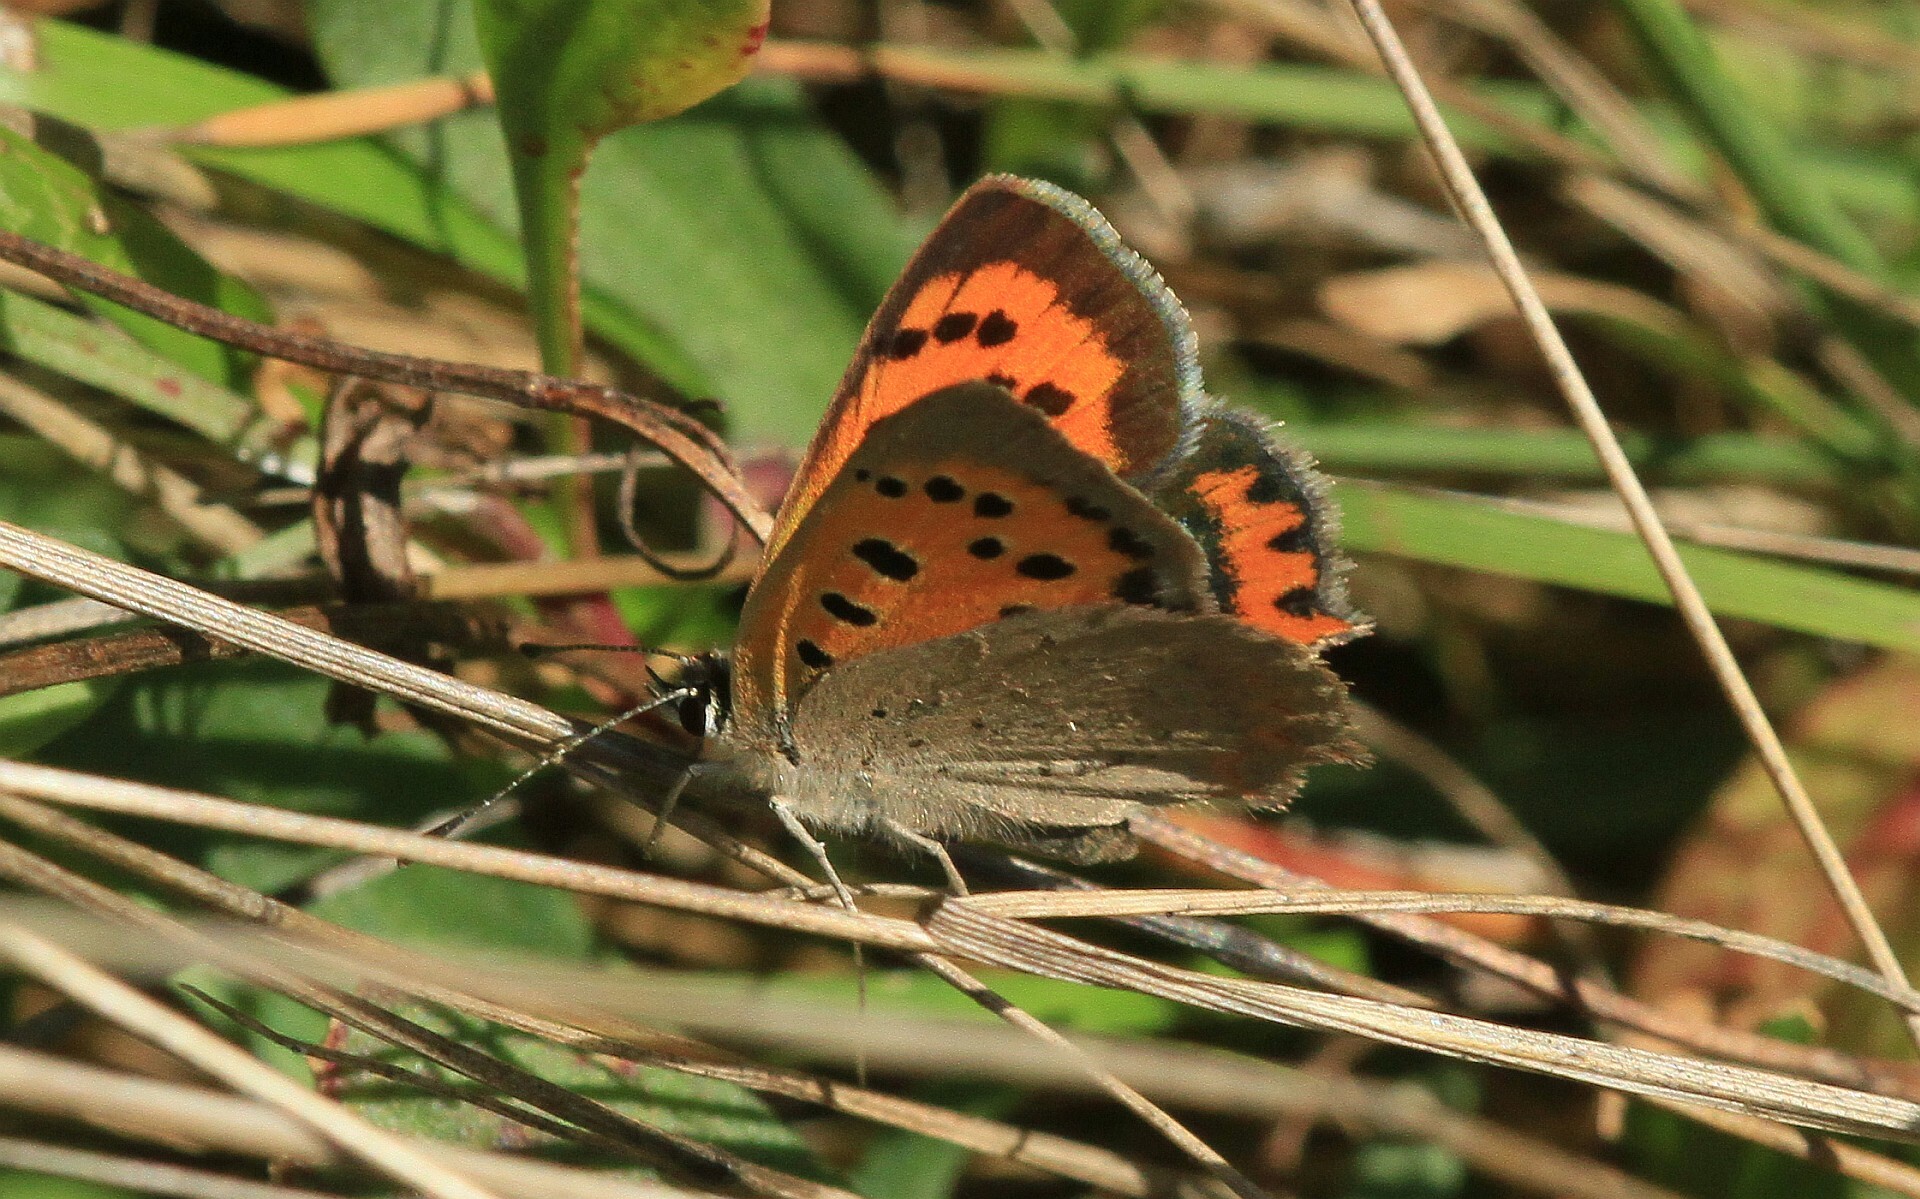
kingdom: Animalia
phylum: Arthropoda
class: Insecta
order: Lepidoptera
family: Lycaenidae
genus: Lycaena
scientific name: Lycaena phlaeas
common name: Small copper
